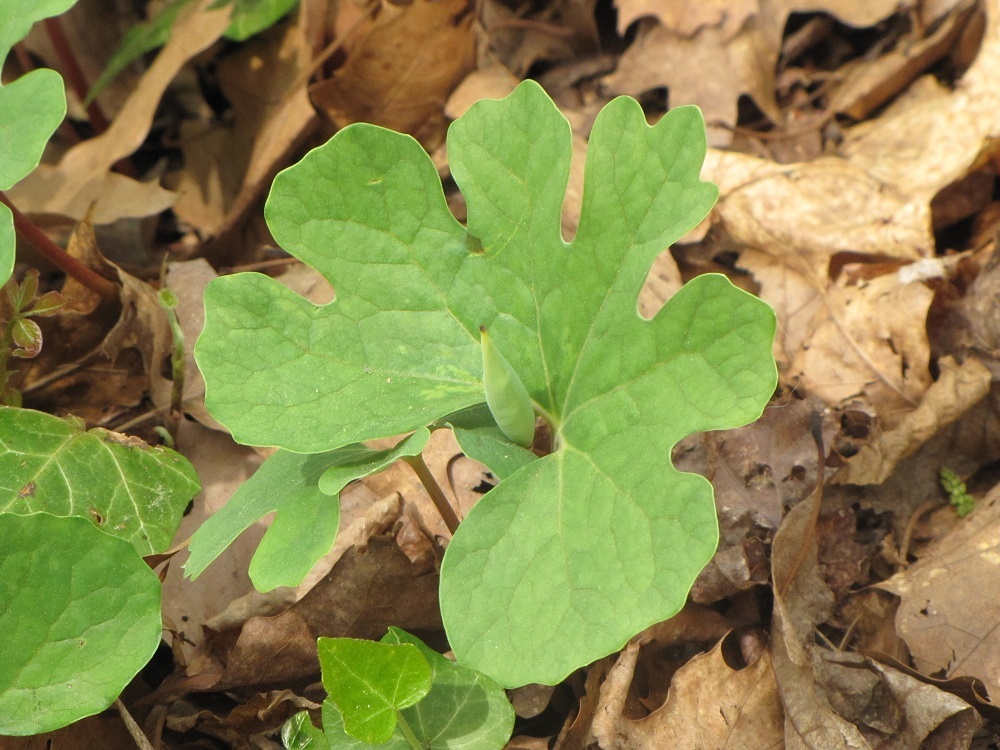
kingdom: Plantae
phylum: Tracheophyta
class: Magnoliopsida
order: Ranunculales
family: Papaveraceae
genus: Sanguinaria
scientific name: Sanguinaria canadensis
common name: Bloodroot
